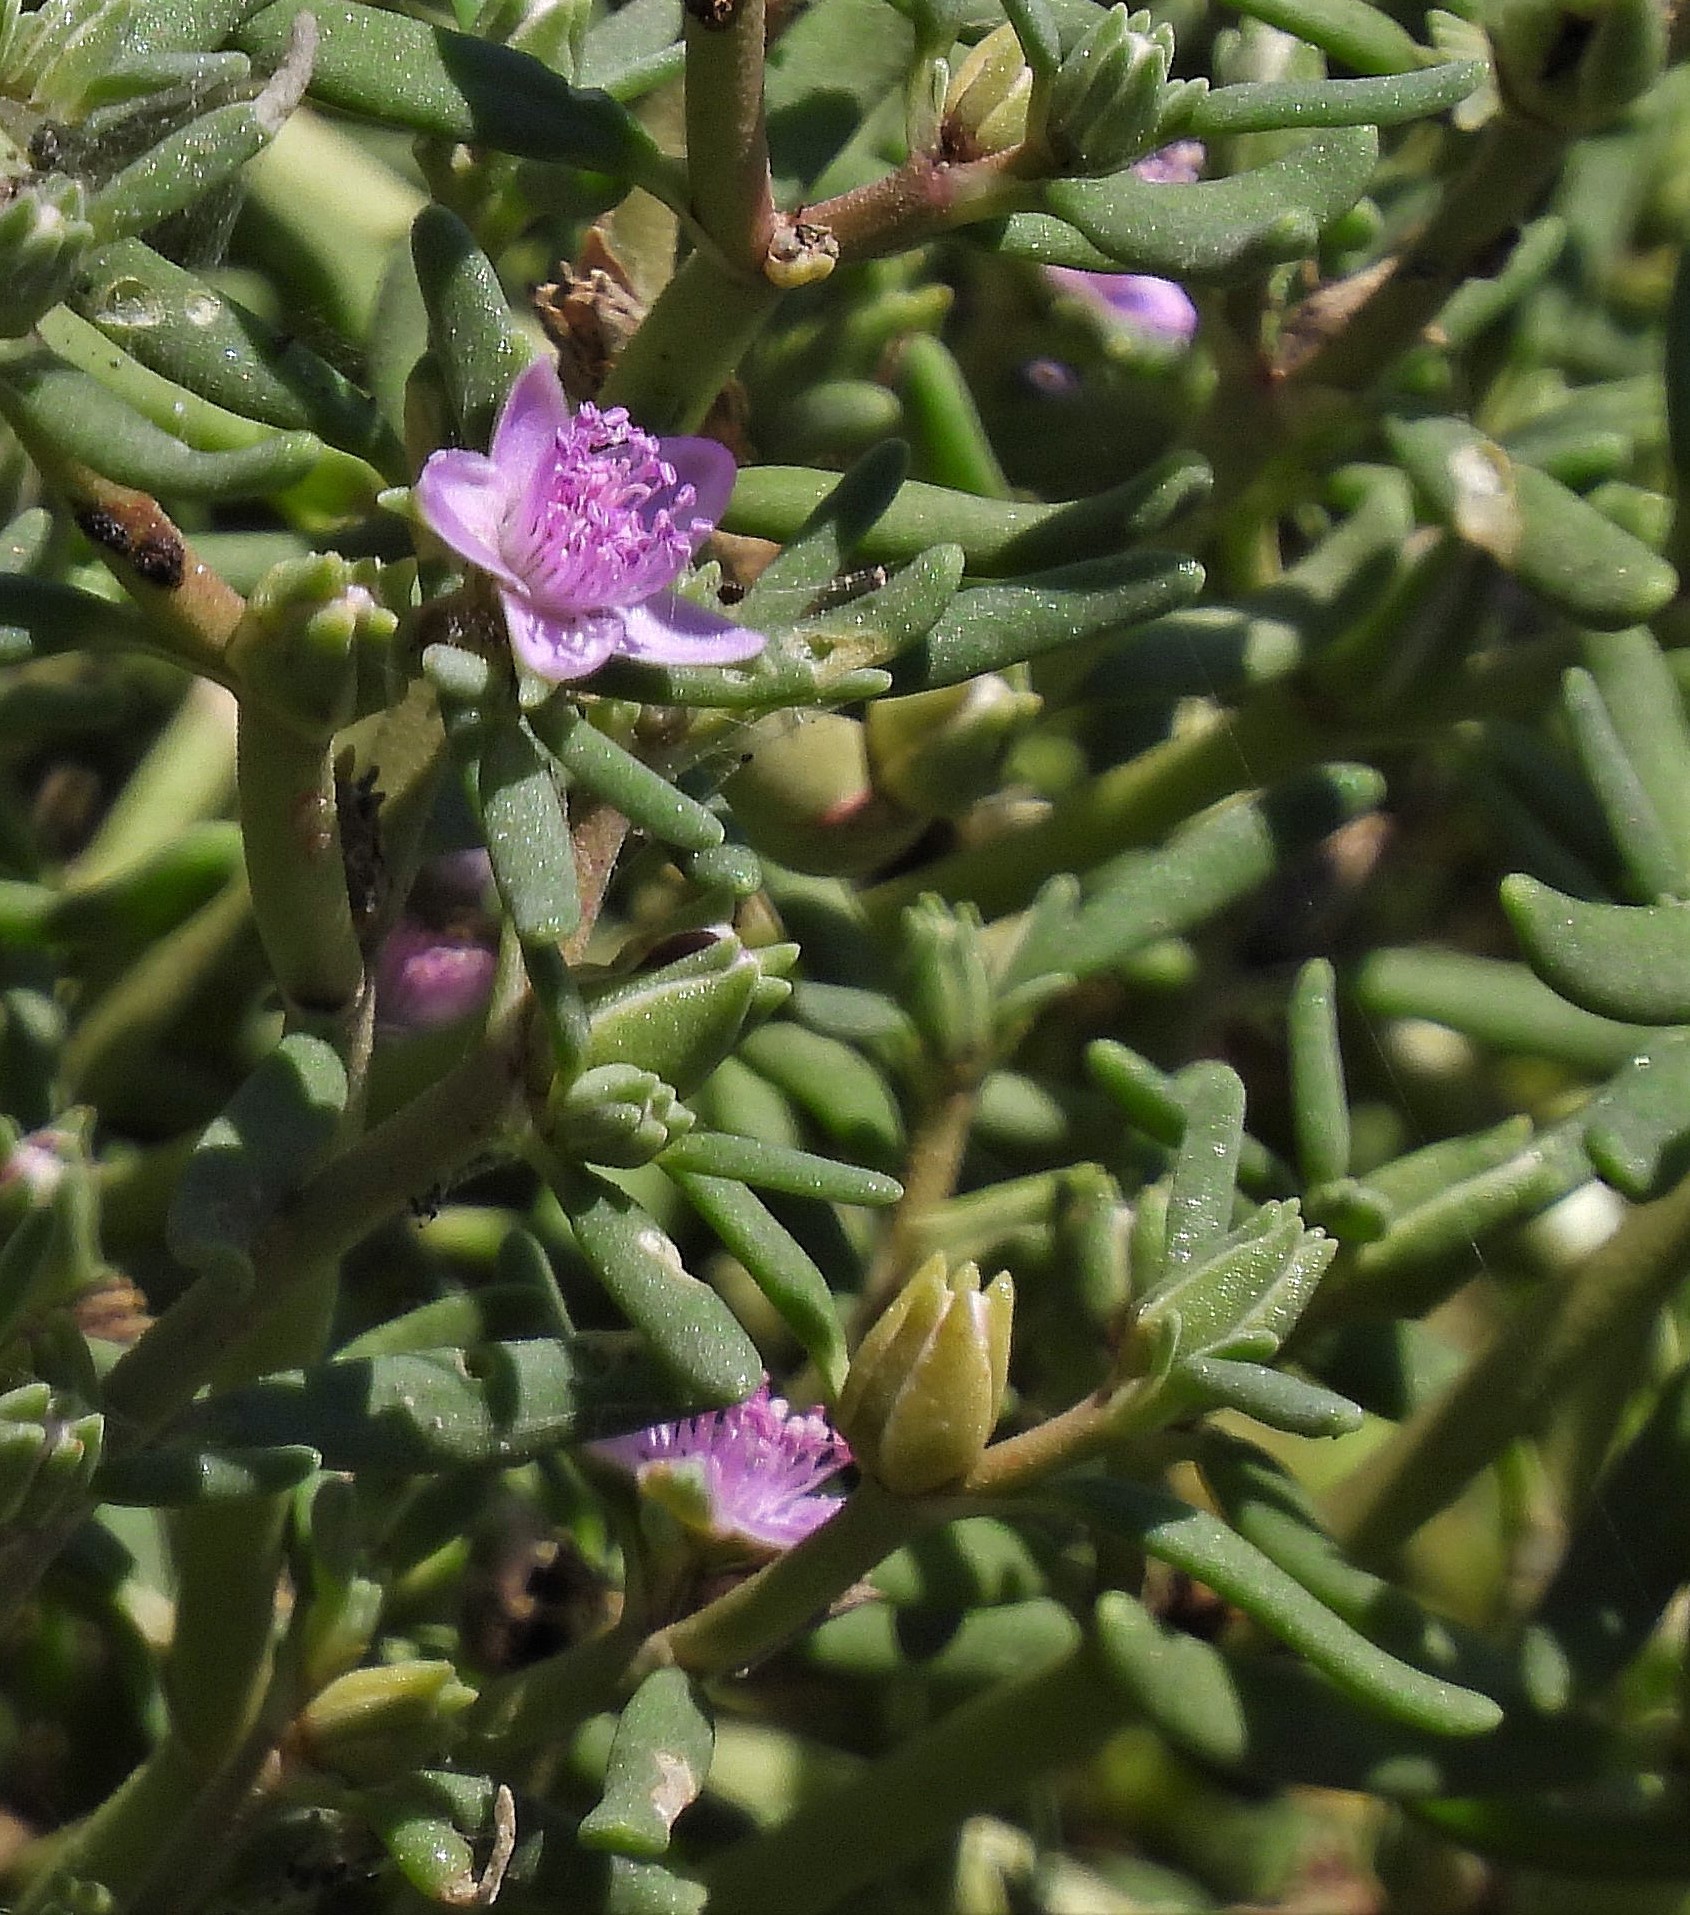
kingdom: Plantae
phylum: Tracheophyta
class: Magnoliopsida
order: Caryophyllales
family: Aizoaceae
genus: Sesuvium
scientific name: Sesuvium portulacastrum
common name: Sea-purslane
